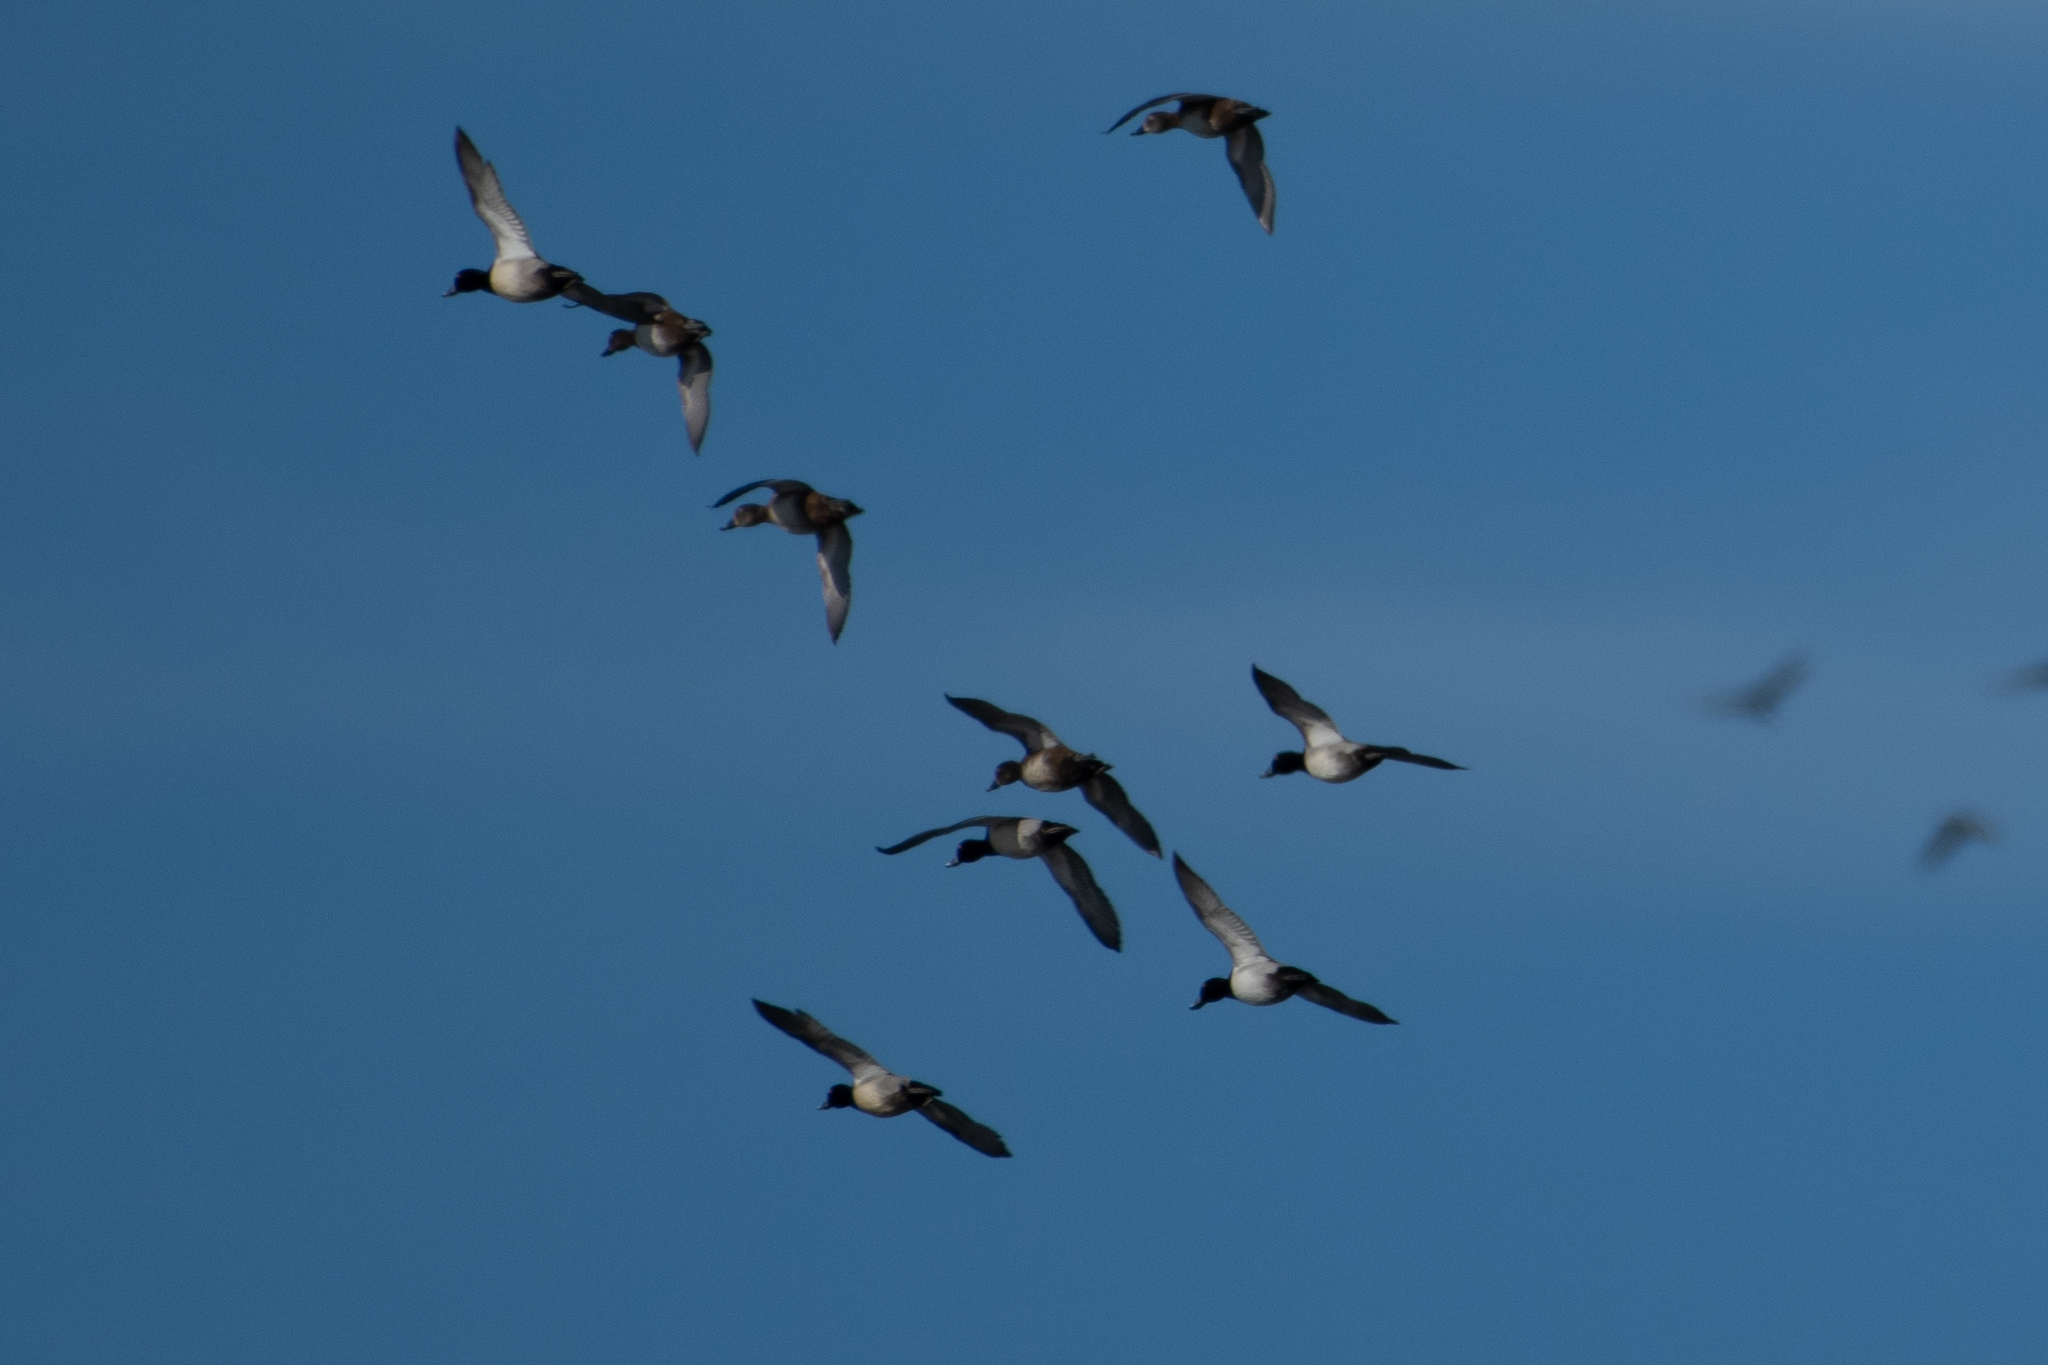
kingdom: Animalia
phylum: Chordata
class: Aves
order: Anseriformes
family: Anatidae
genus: Bucephala
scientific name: Bucephala clangula
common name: Common goldeneye
